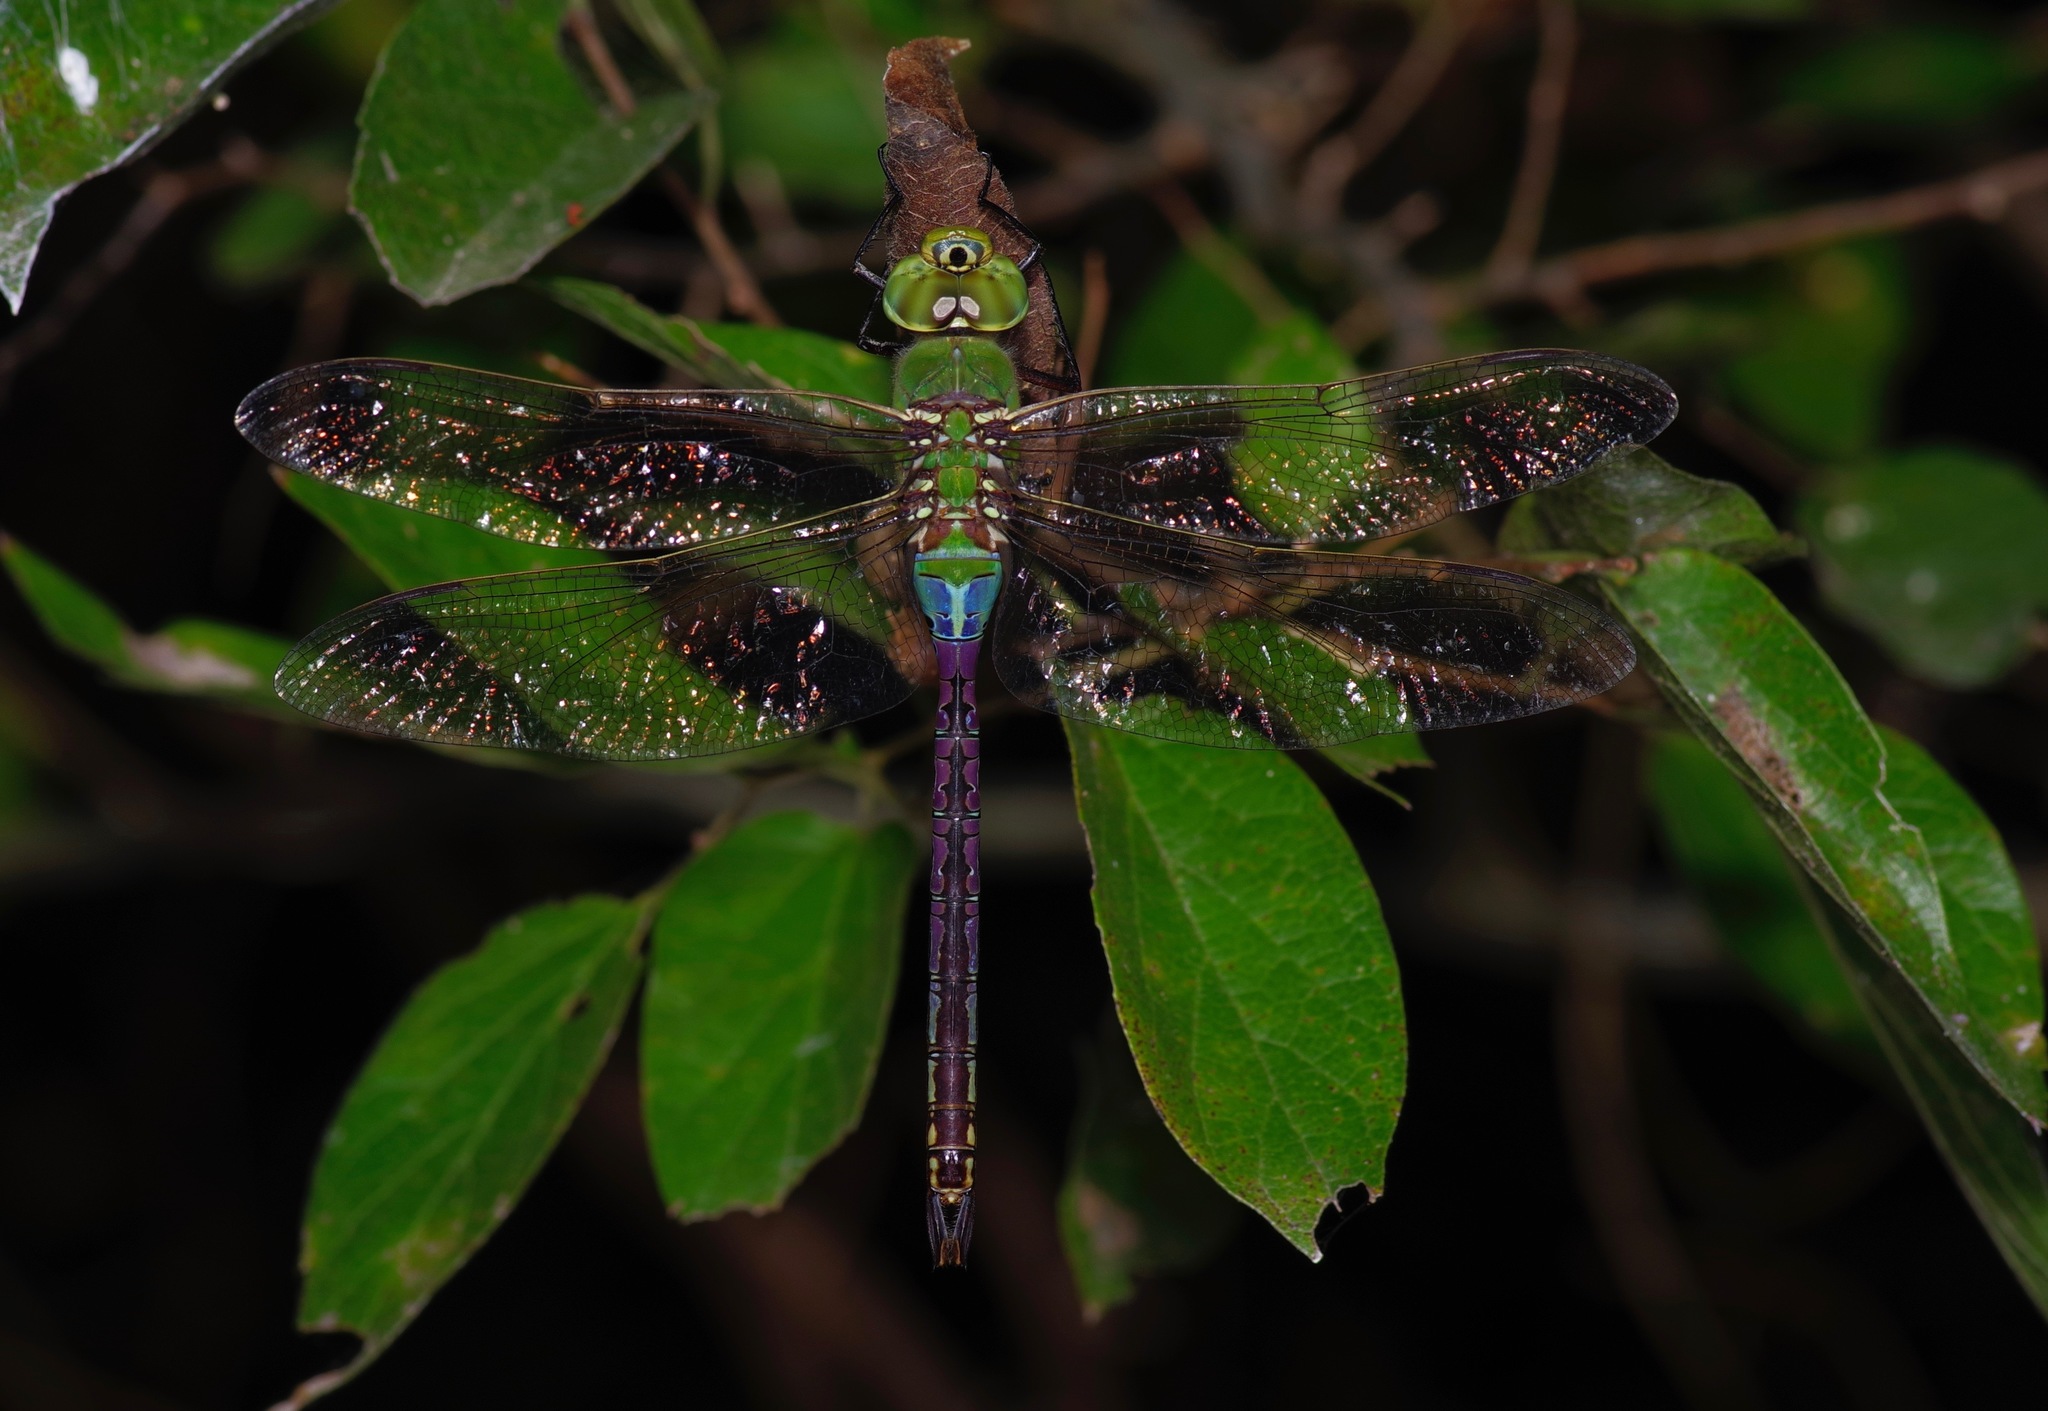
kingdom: Animalia
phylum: Arthropoda
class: Insecta
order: Odonata
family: Aeshnidae
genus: Anax
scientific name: Anax junius
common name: Common green darner
